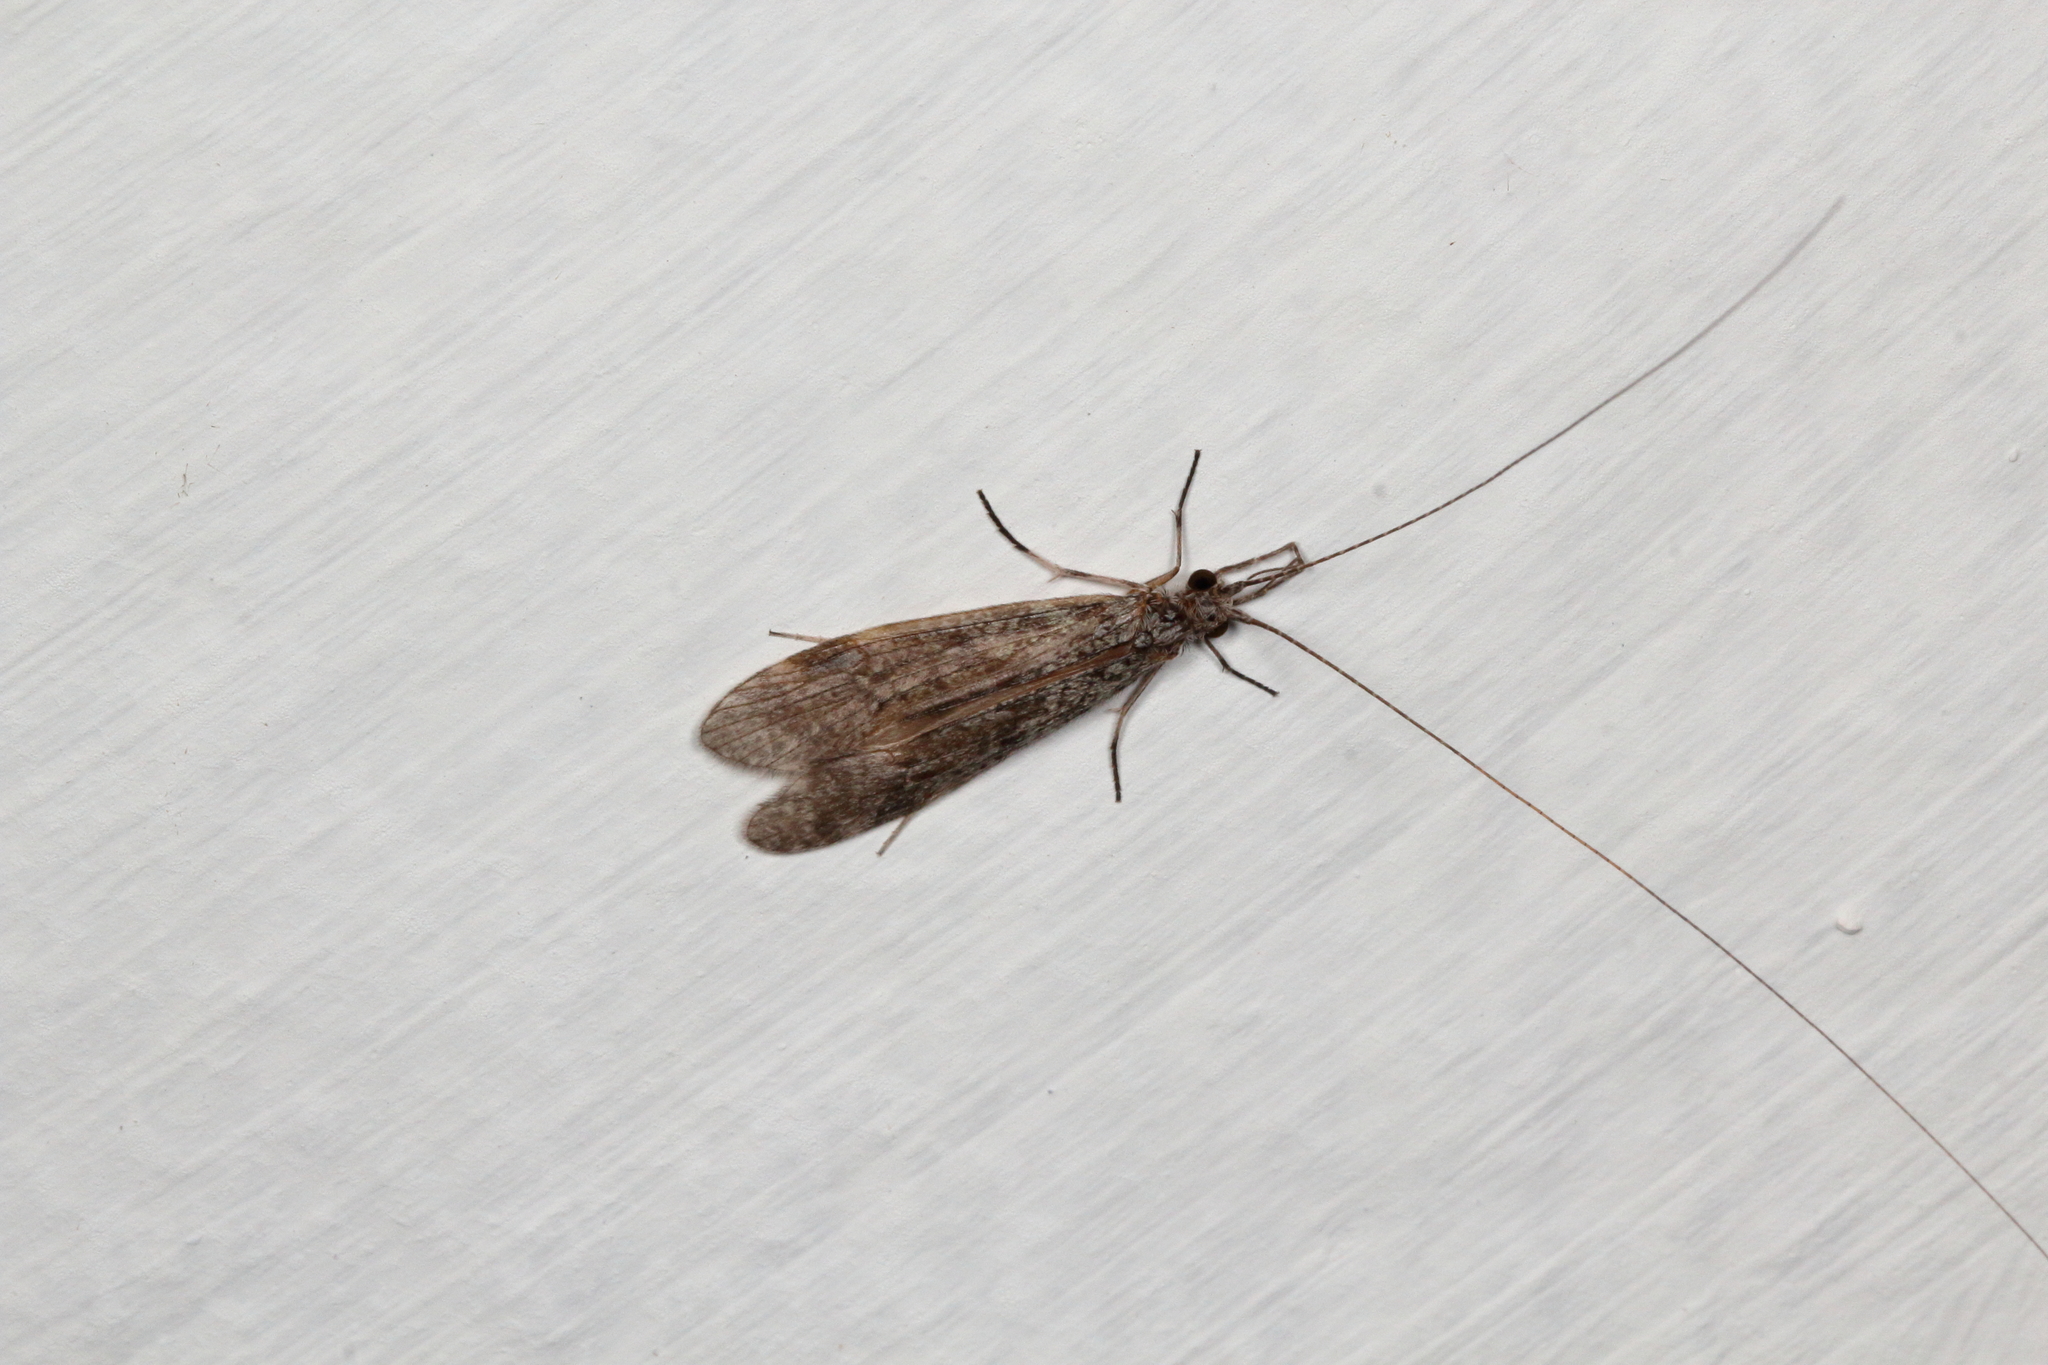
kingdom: Animalia
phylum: Arthropoda
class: Insecta
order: Trichoptera
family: Leptoceridae
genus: Triplectides
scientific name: Triplectides cephalotes
